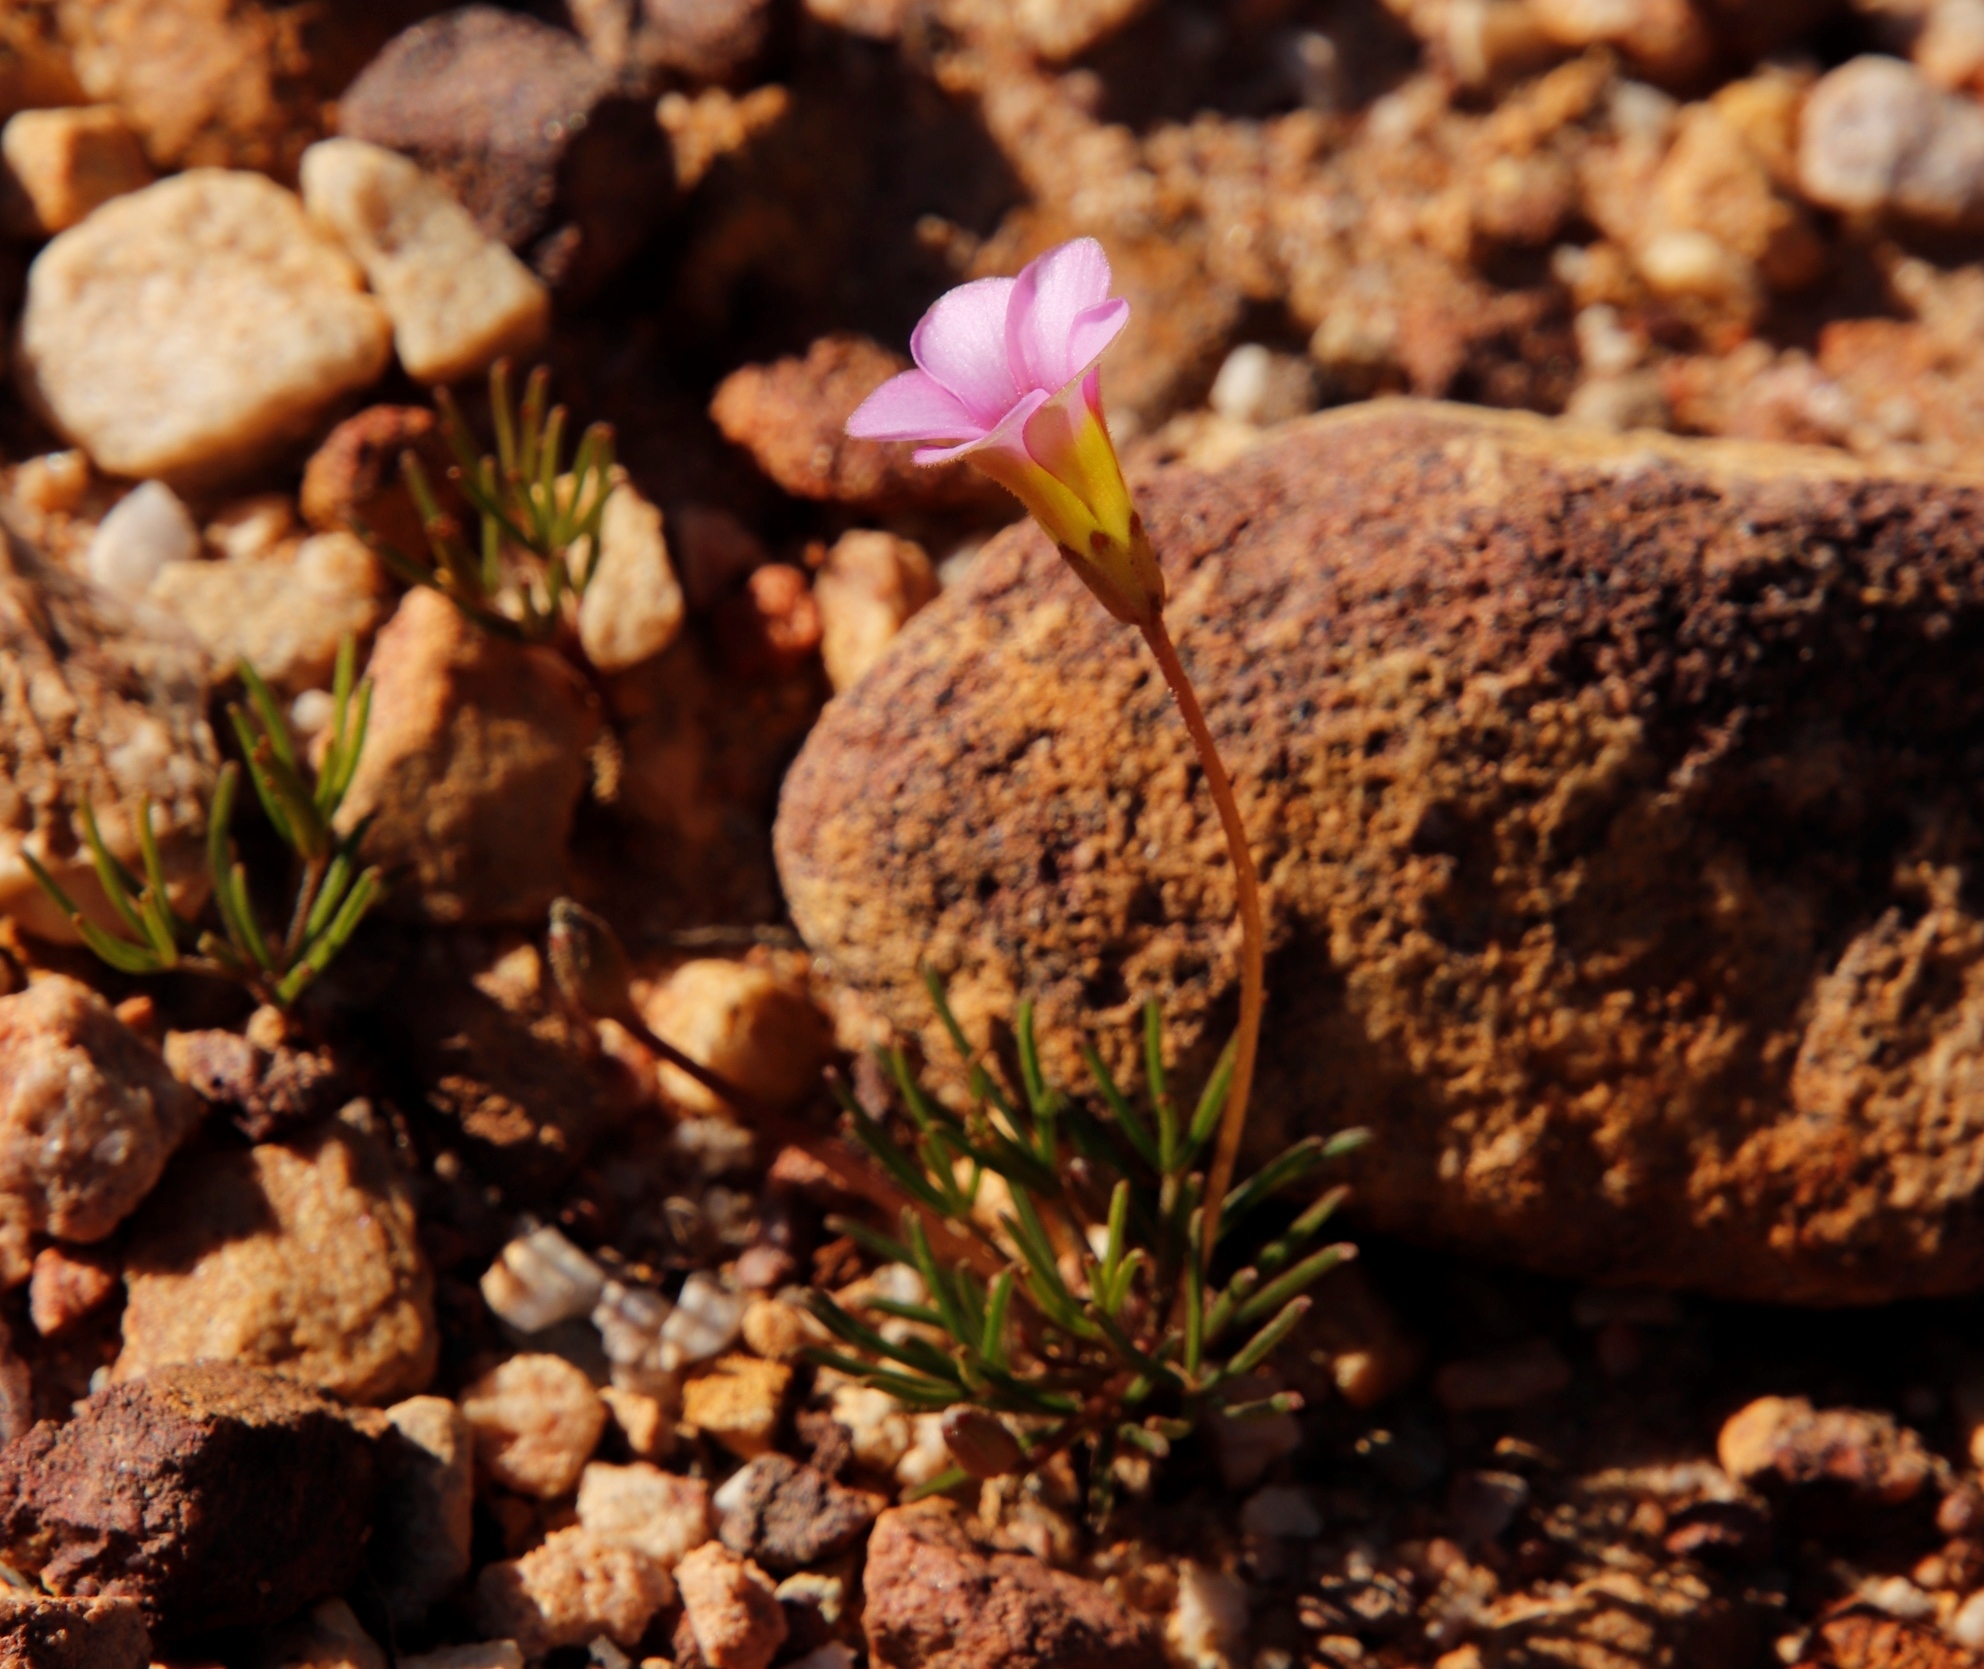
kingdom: Plantae
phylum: Tracheophyta
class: Magnoliopsida
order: Oxalidales
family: Oxalidaceae
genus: Oxalis
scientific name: Oxalis polyphylla
